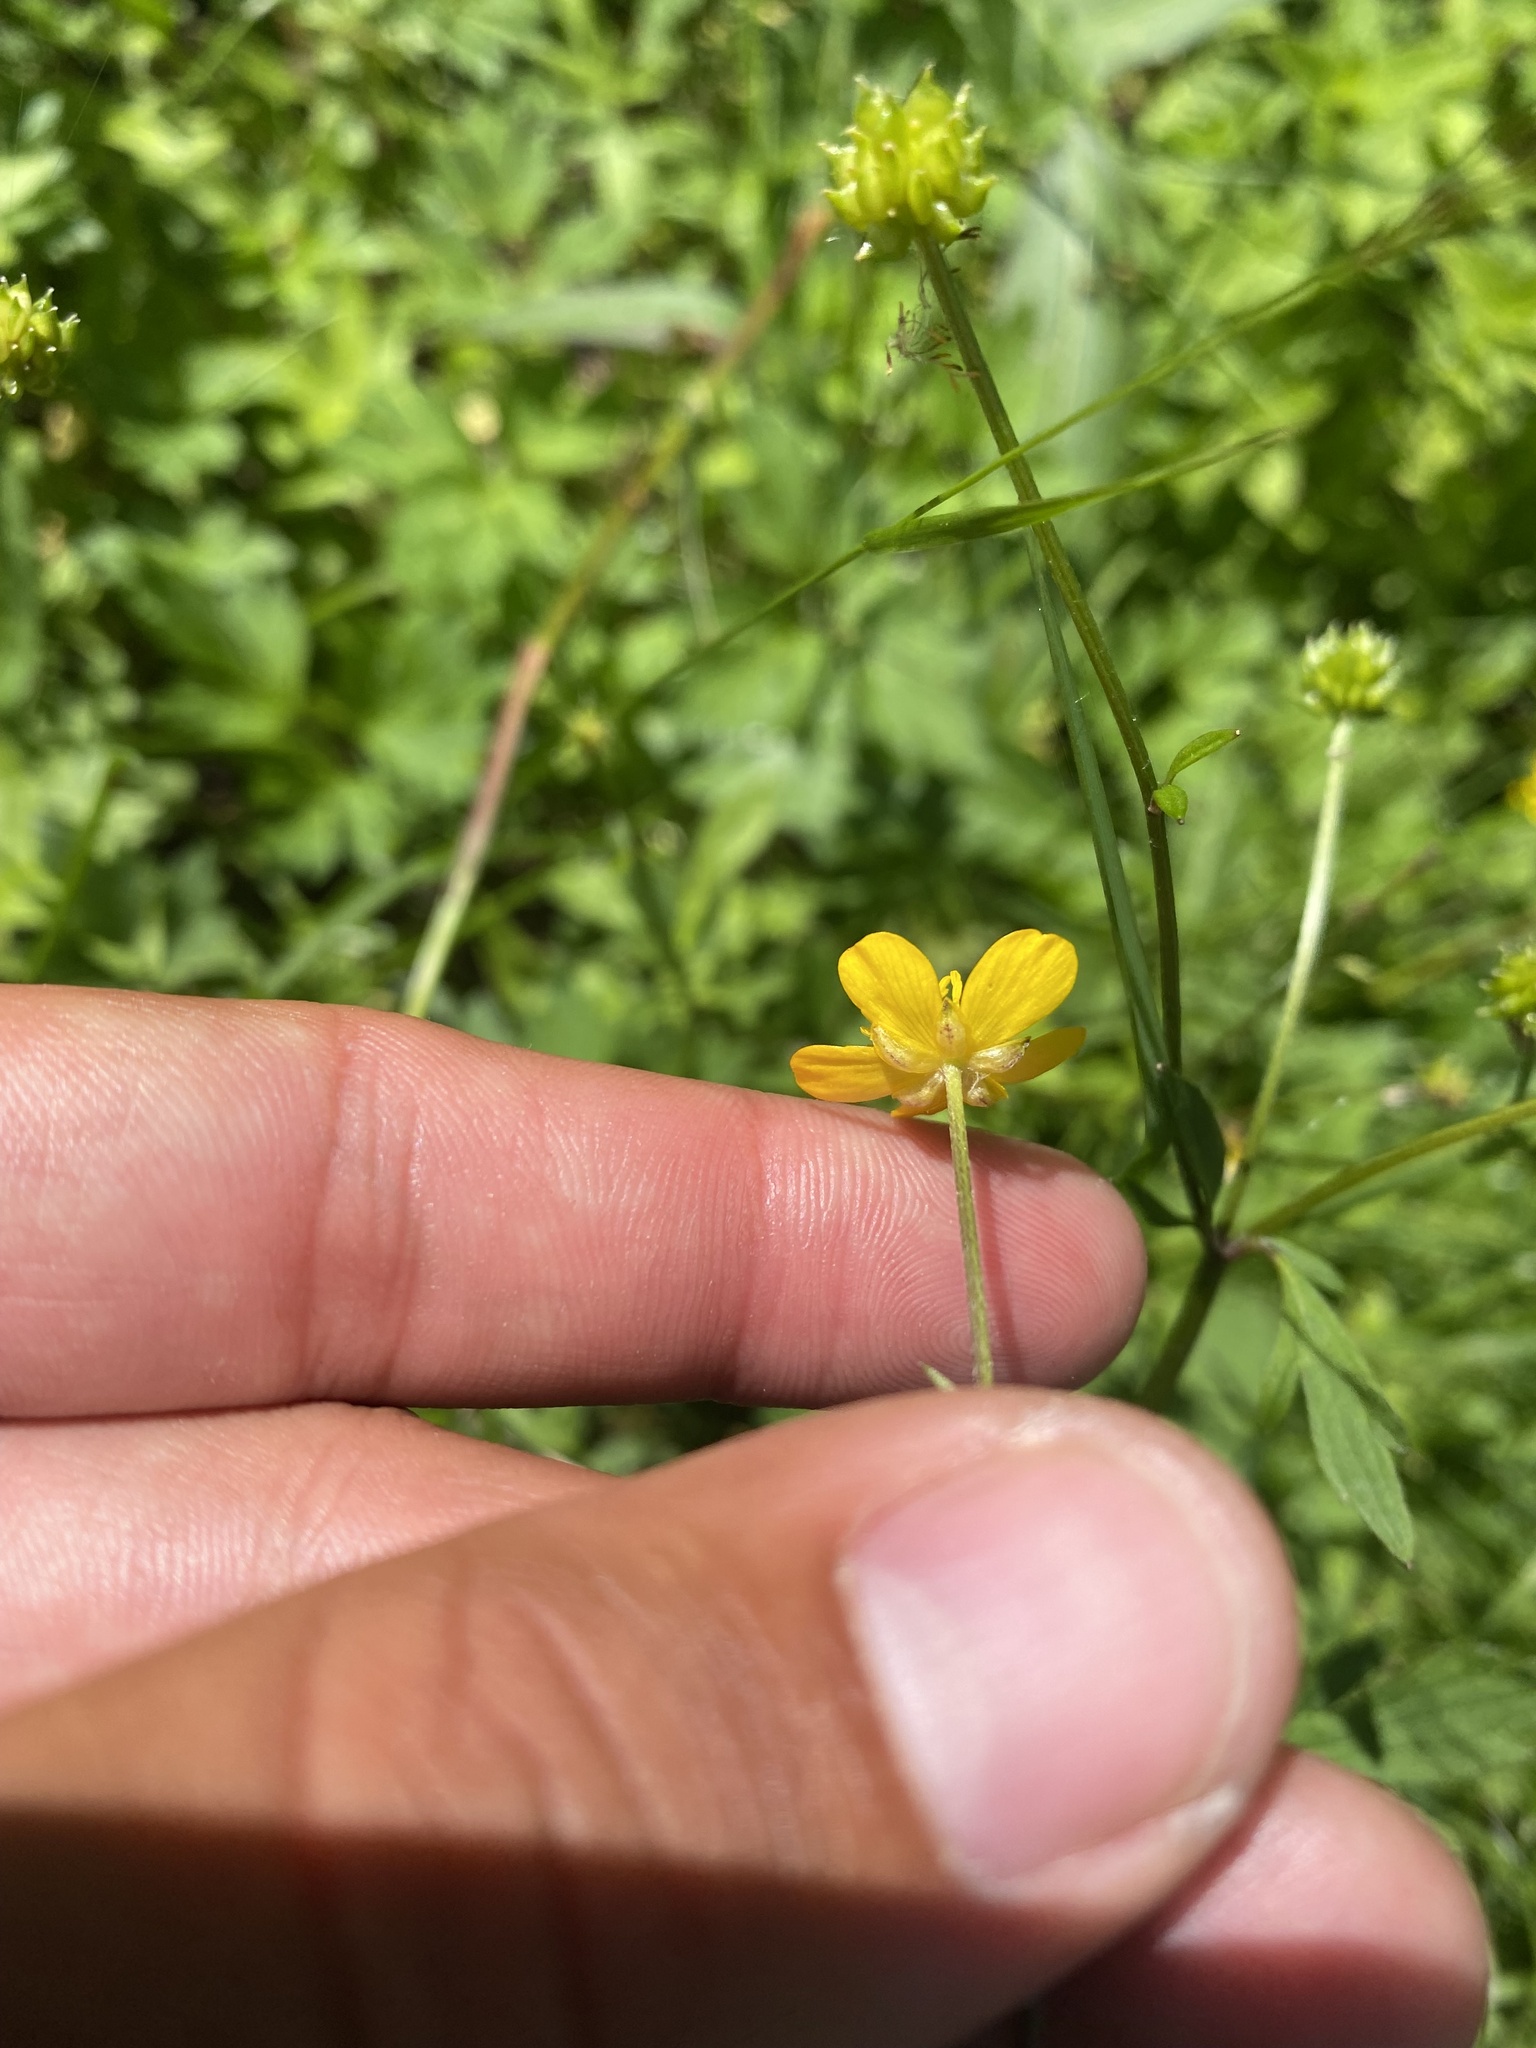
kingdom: Plantae
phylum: Tracheophyta
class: Magnoliopsida
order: Ranunculales
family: Ranunculaceae
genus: Ranunculus
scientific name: Ranunculus repens
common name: Creeping buttercup
